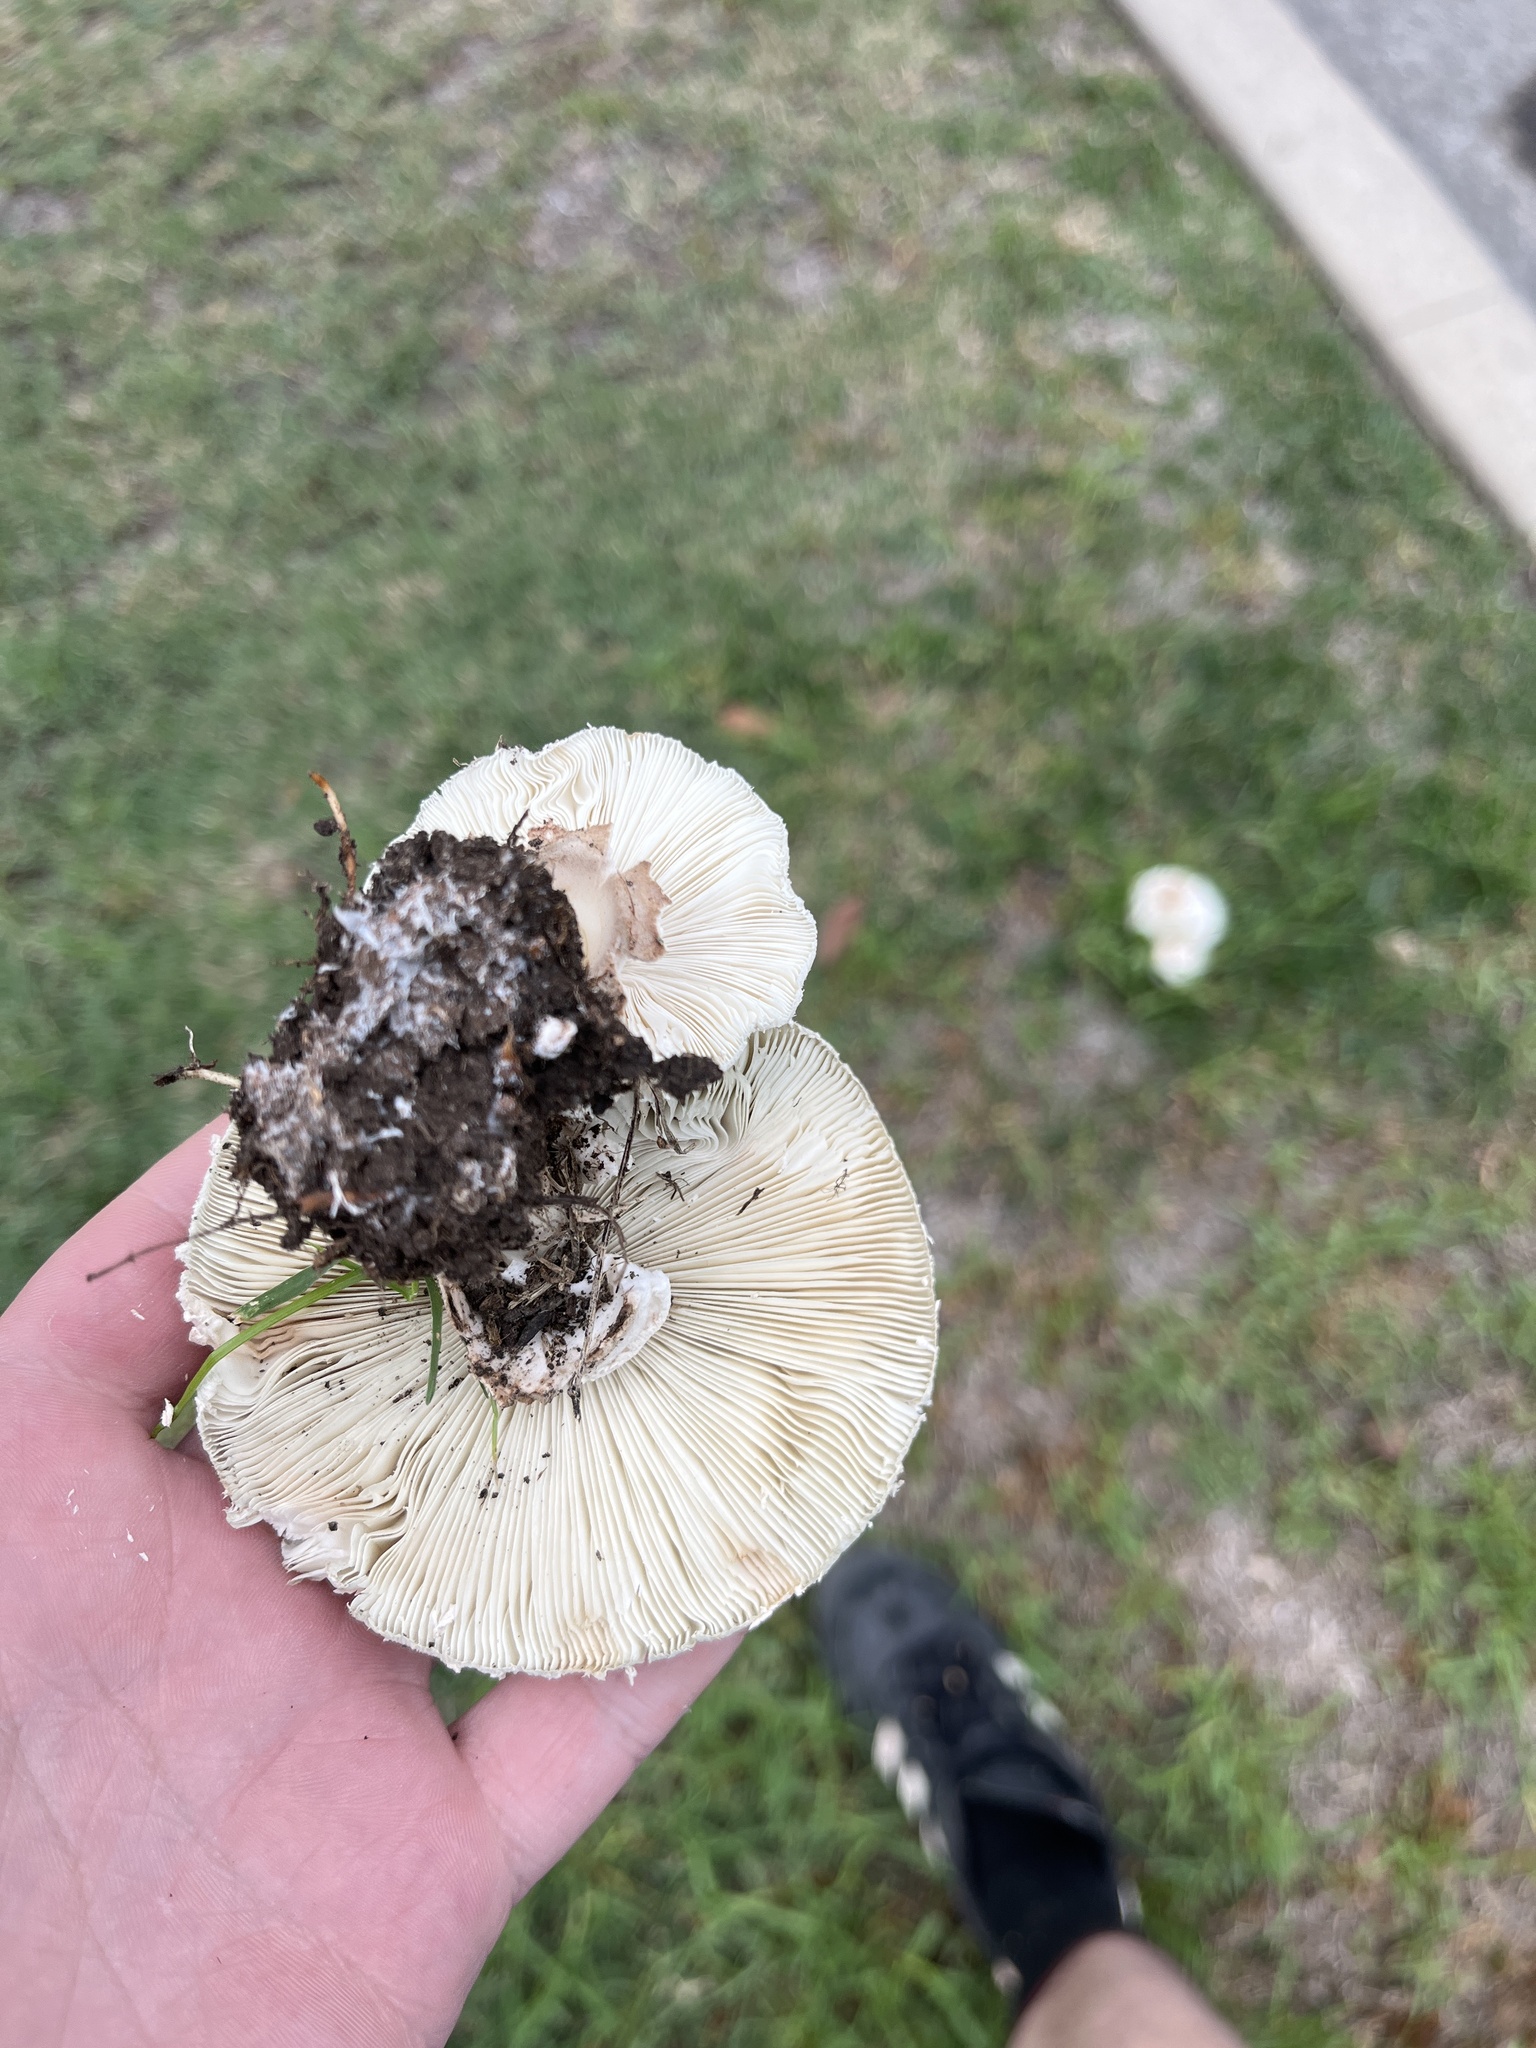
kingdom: Fungi
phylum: Basidiomycota
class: Agaricomycetes
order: Agaricales
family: Agaricaceae
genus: Chlorophyllum
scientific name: Chlorophyllum molybdites
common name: False parasol
